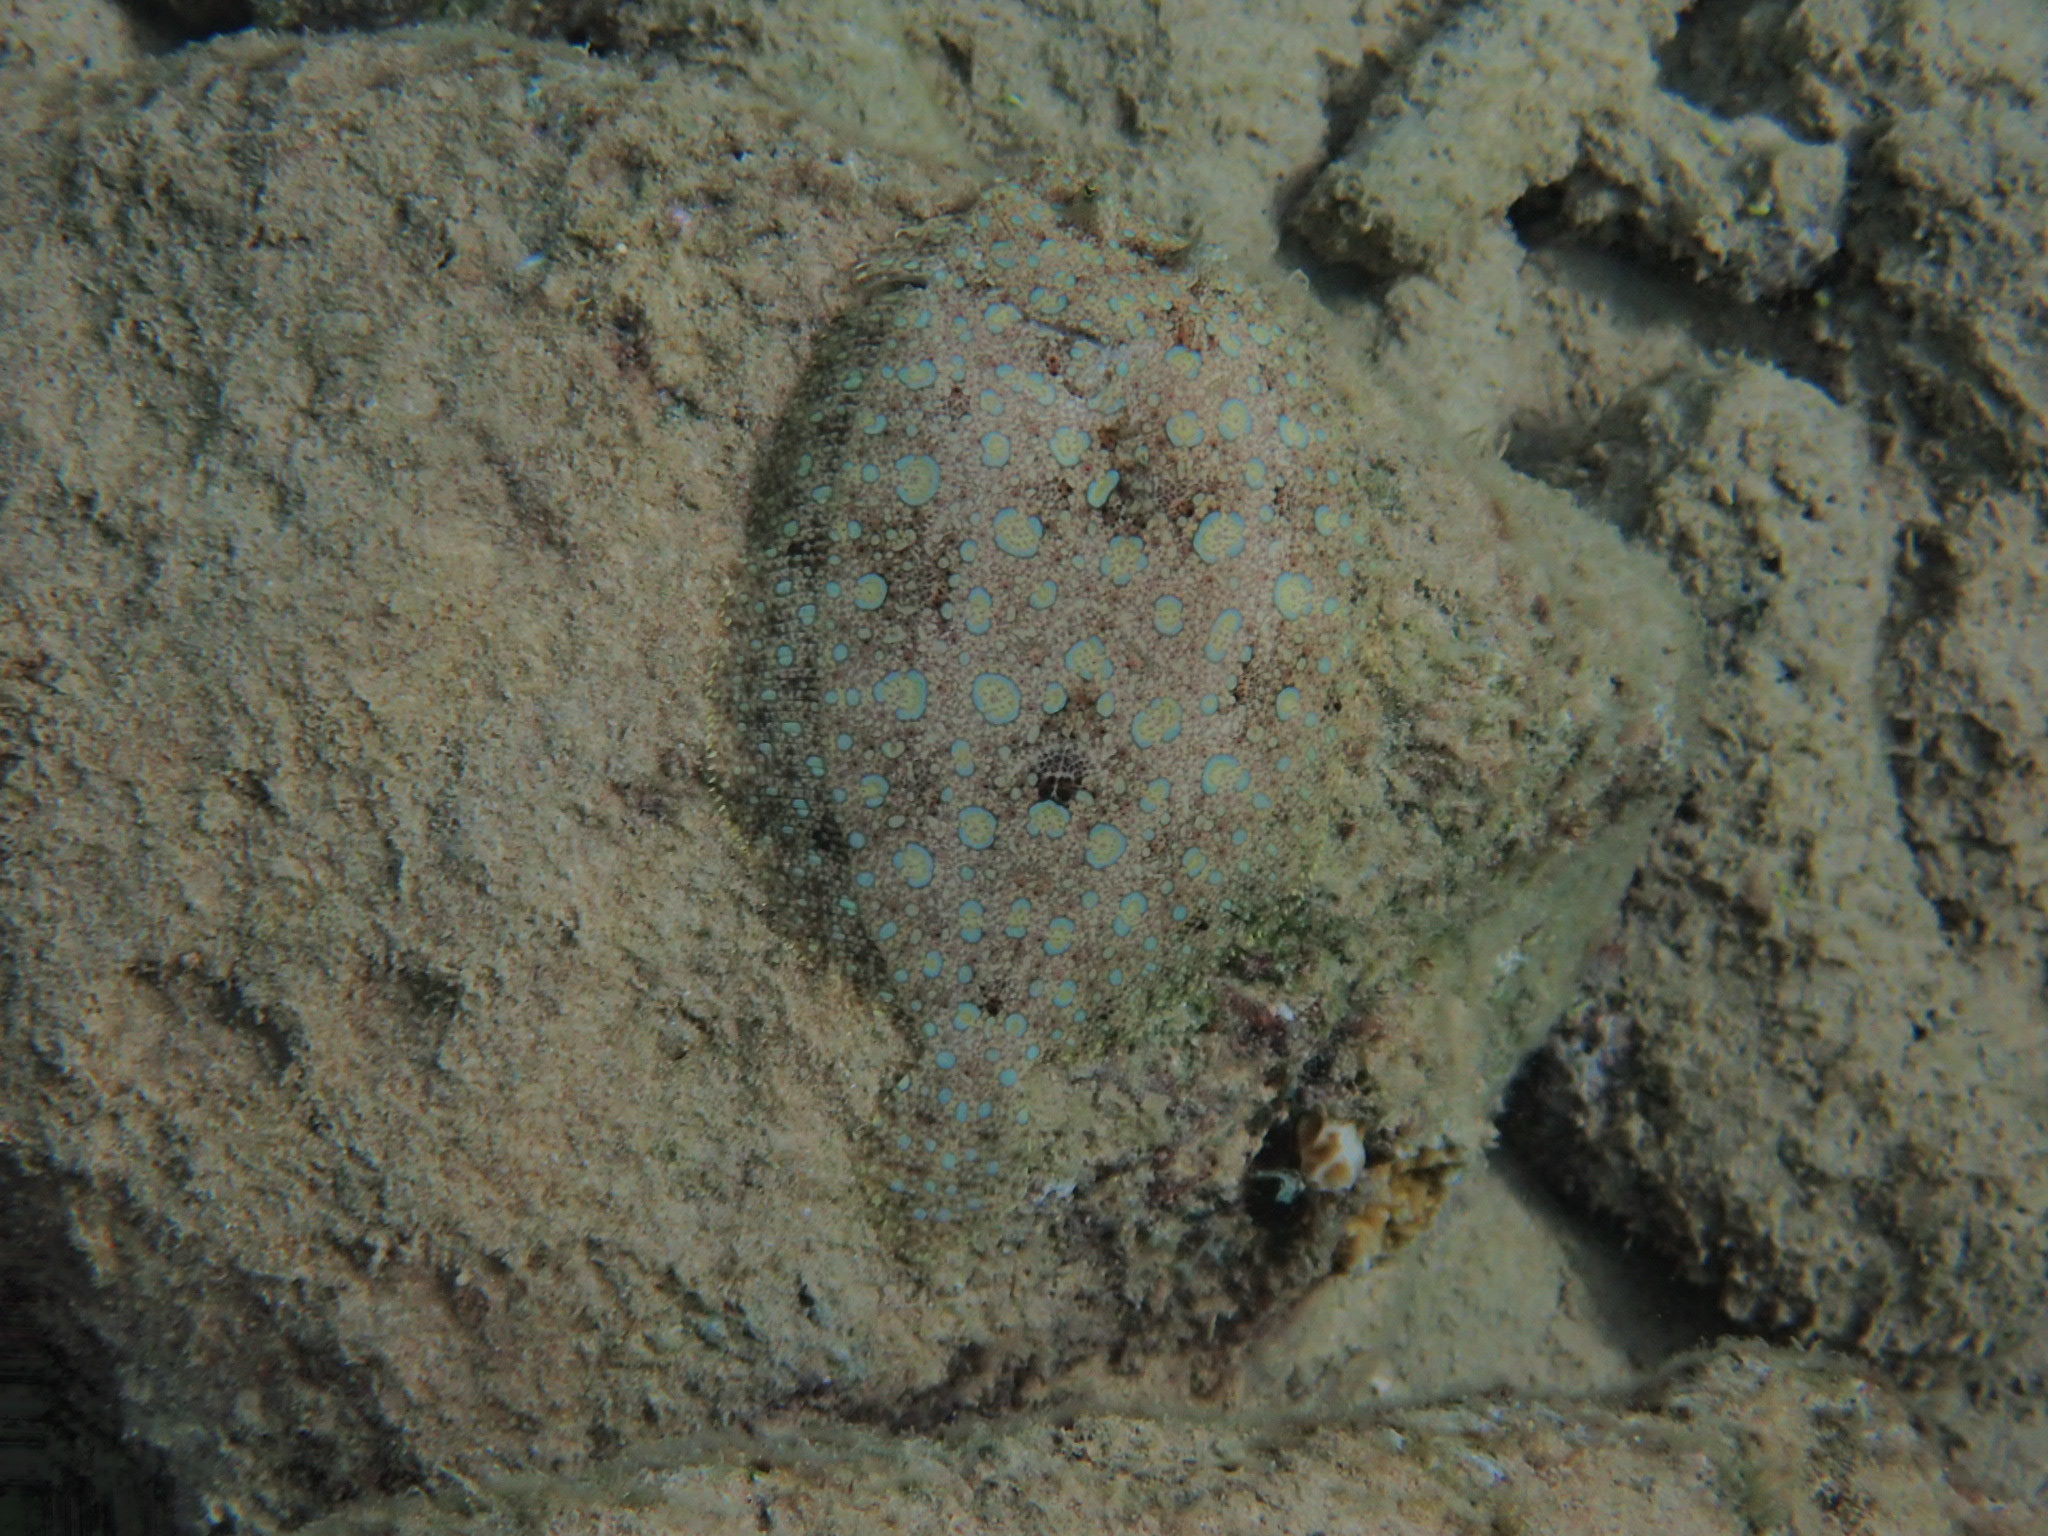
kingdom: Animalia
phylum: Chordata
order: Pleuronectiformes
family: Bothidae
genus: Bothus
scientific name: Bothus lunatus
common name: Peacock flounder
